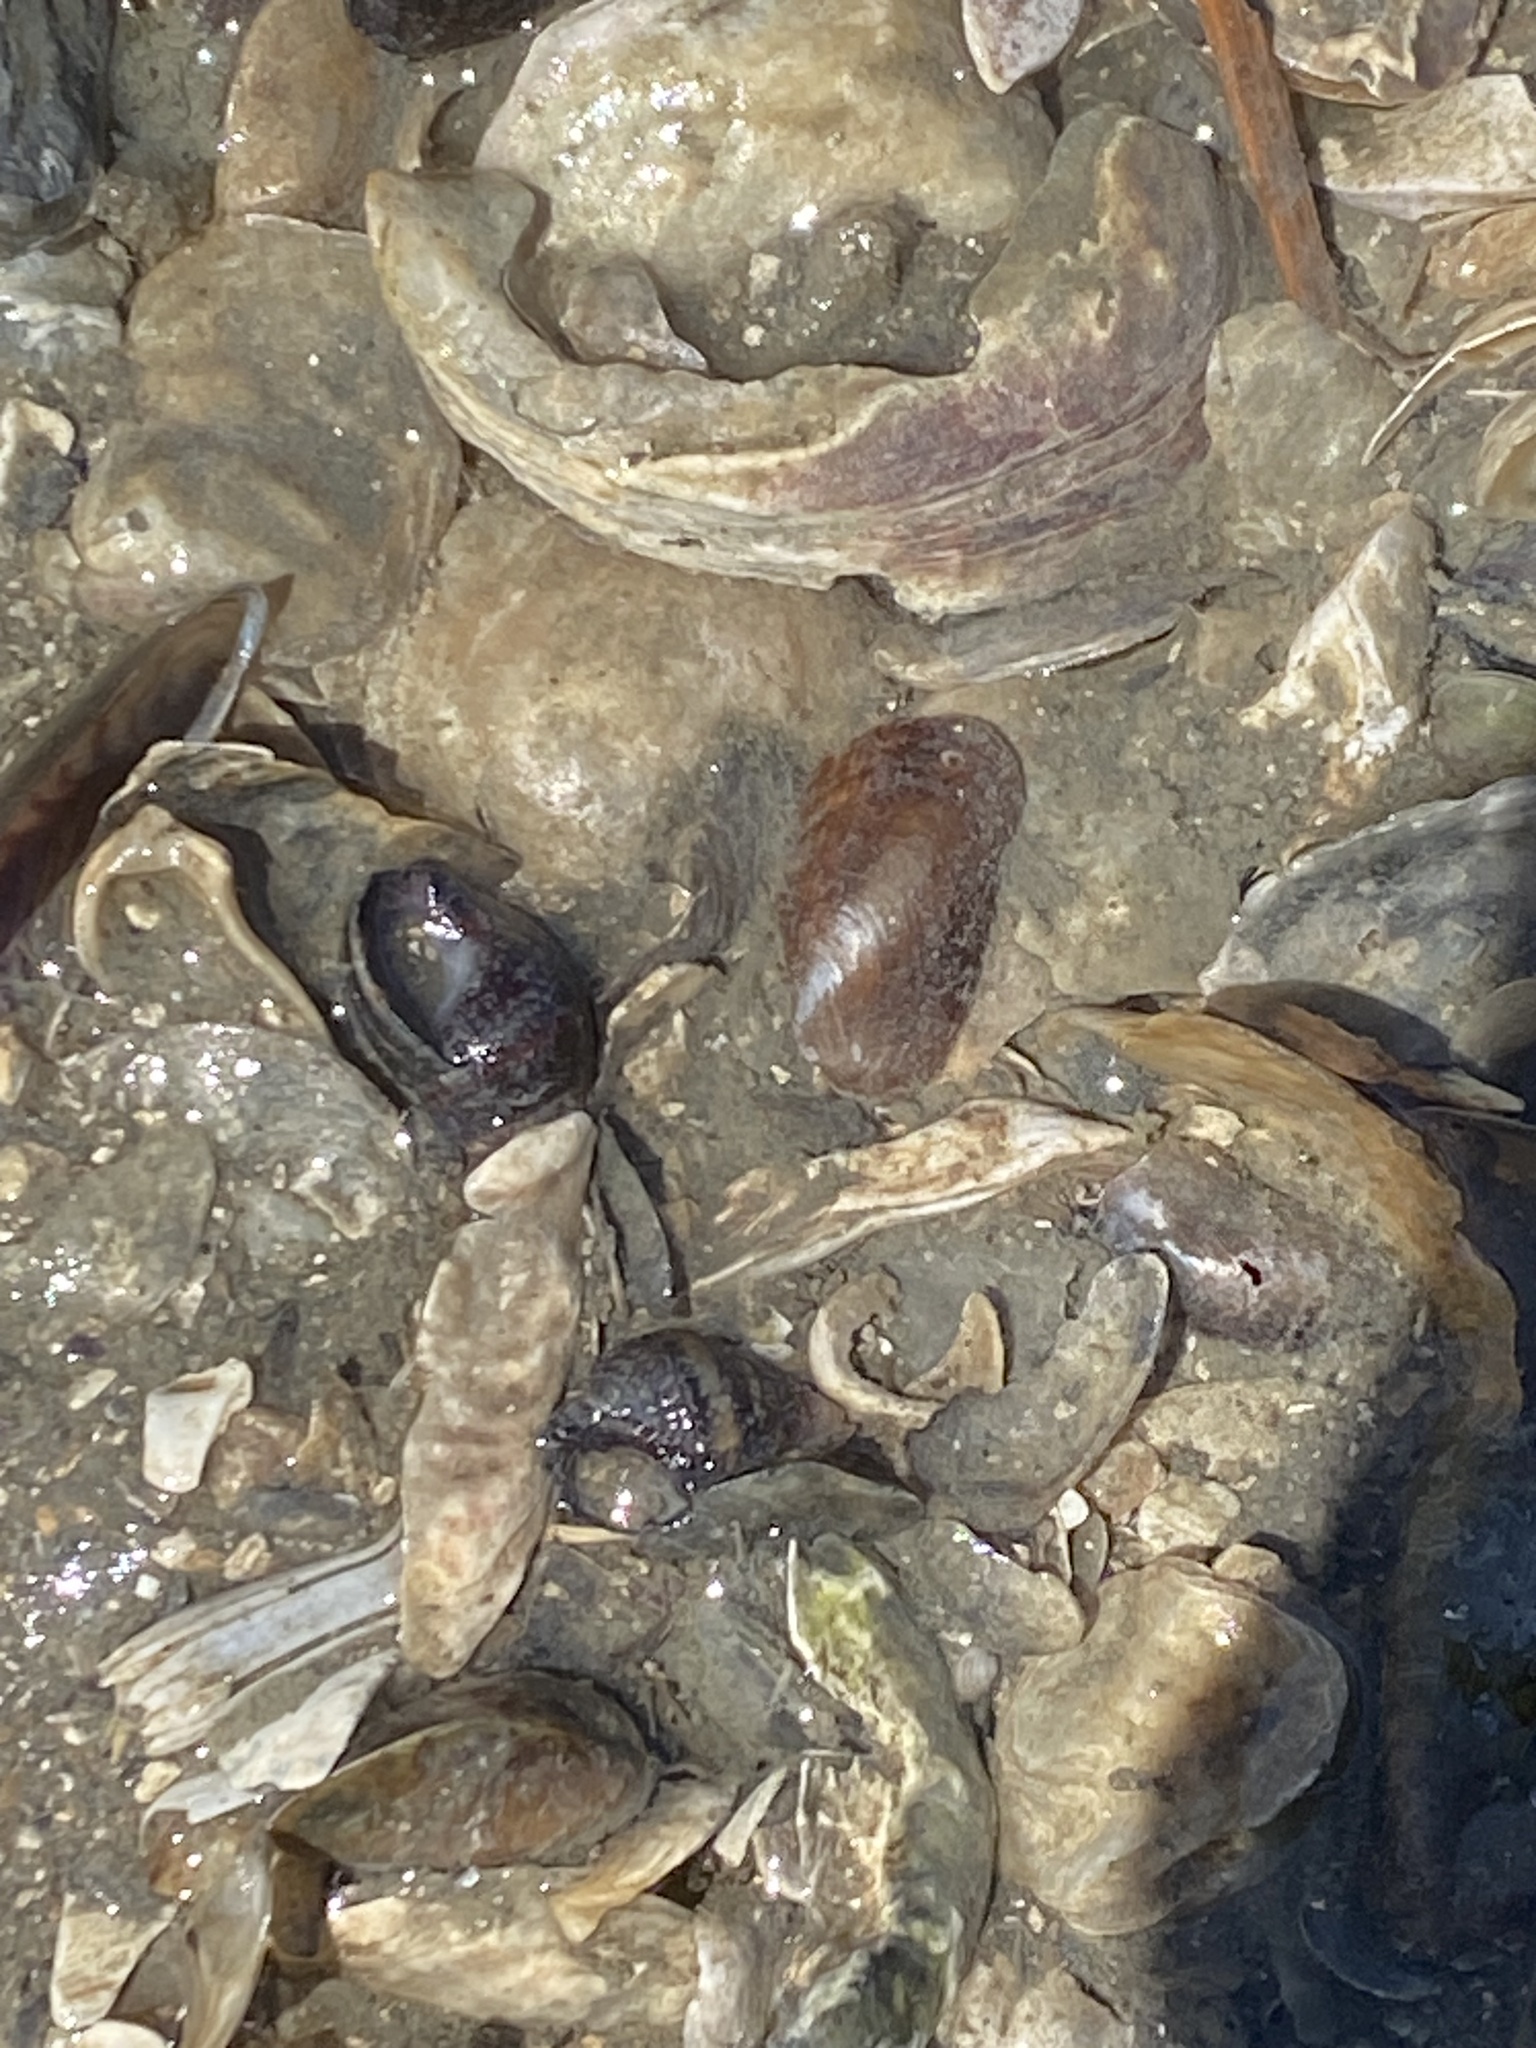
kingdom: Animalia
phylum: Mollusca
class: Bivalvia
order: Mytilida
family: Mytilidae
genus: Arcuatula
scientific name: Arcuatula senhousia
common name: Asian mussel
